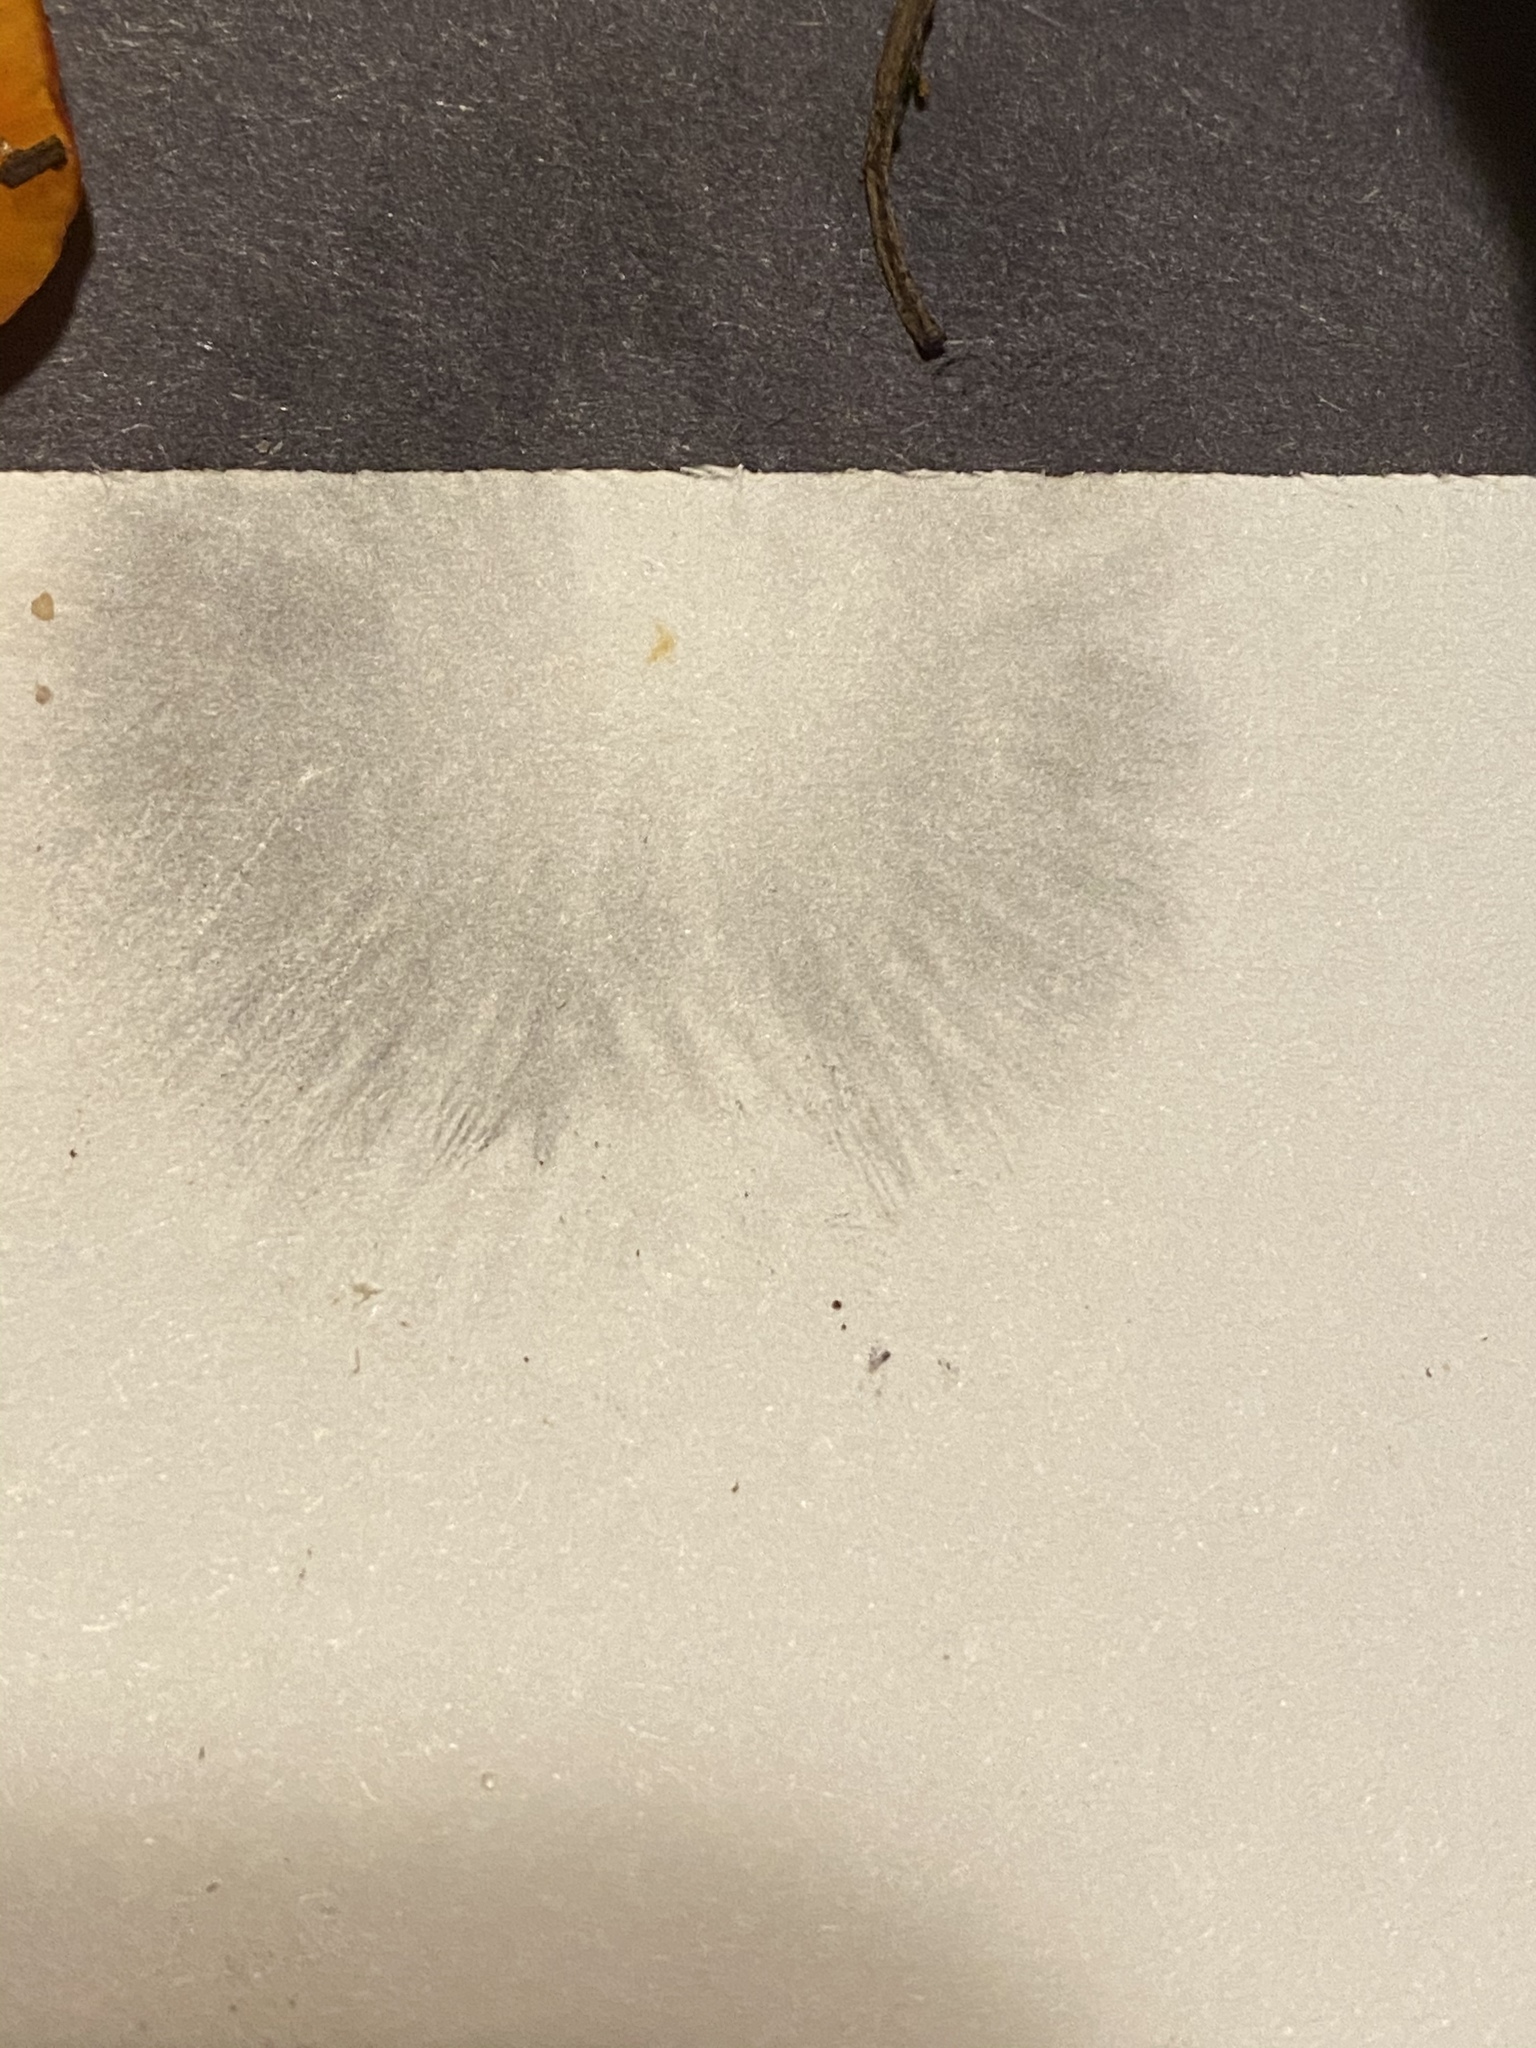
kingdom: Fungi
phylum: Basidiomycota
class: Agaricomycetes
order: Agaricales
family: Psathyrellaceae
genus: Coprinopsis
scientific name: Coprinopsis lagopus
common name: Hare'sfoot inkcap
